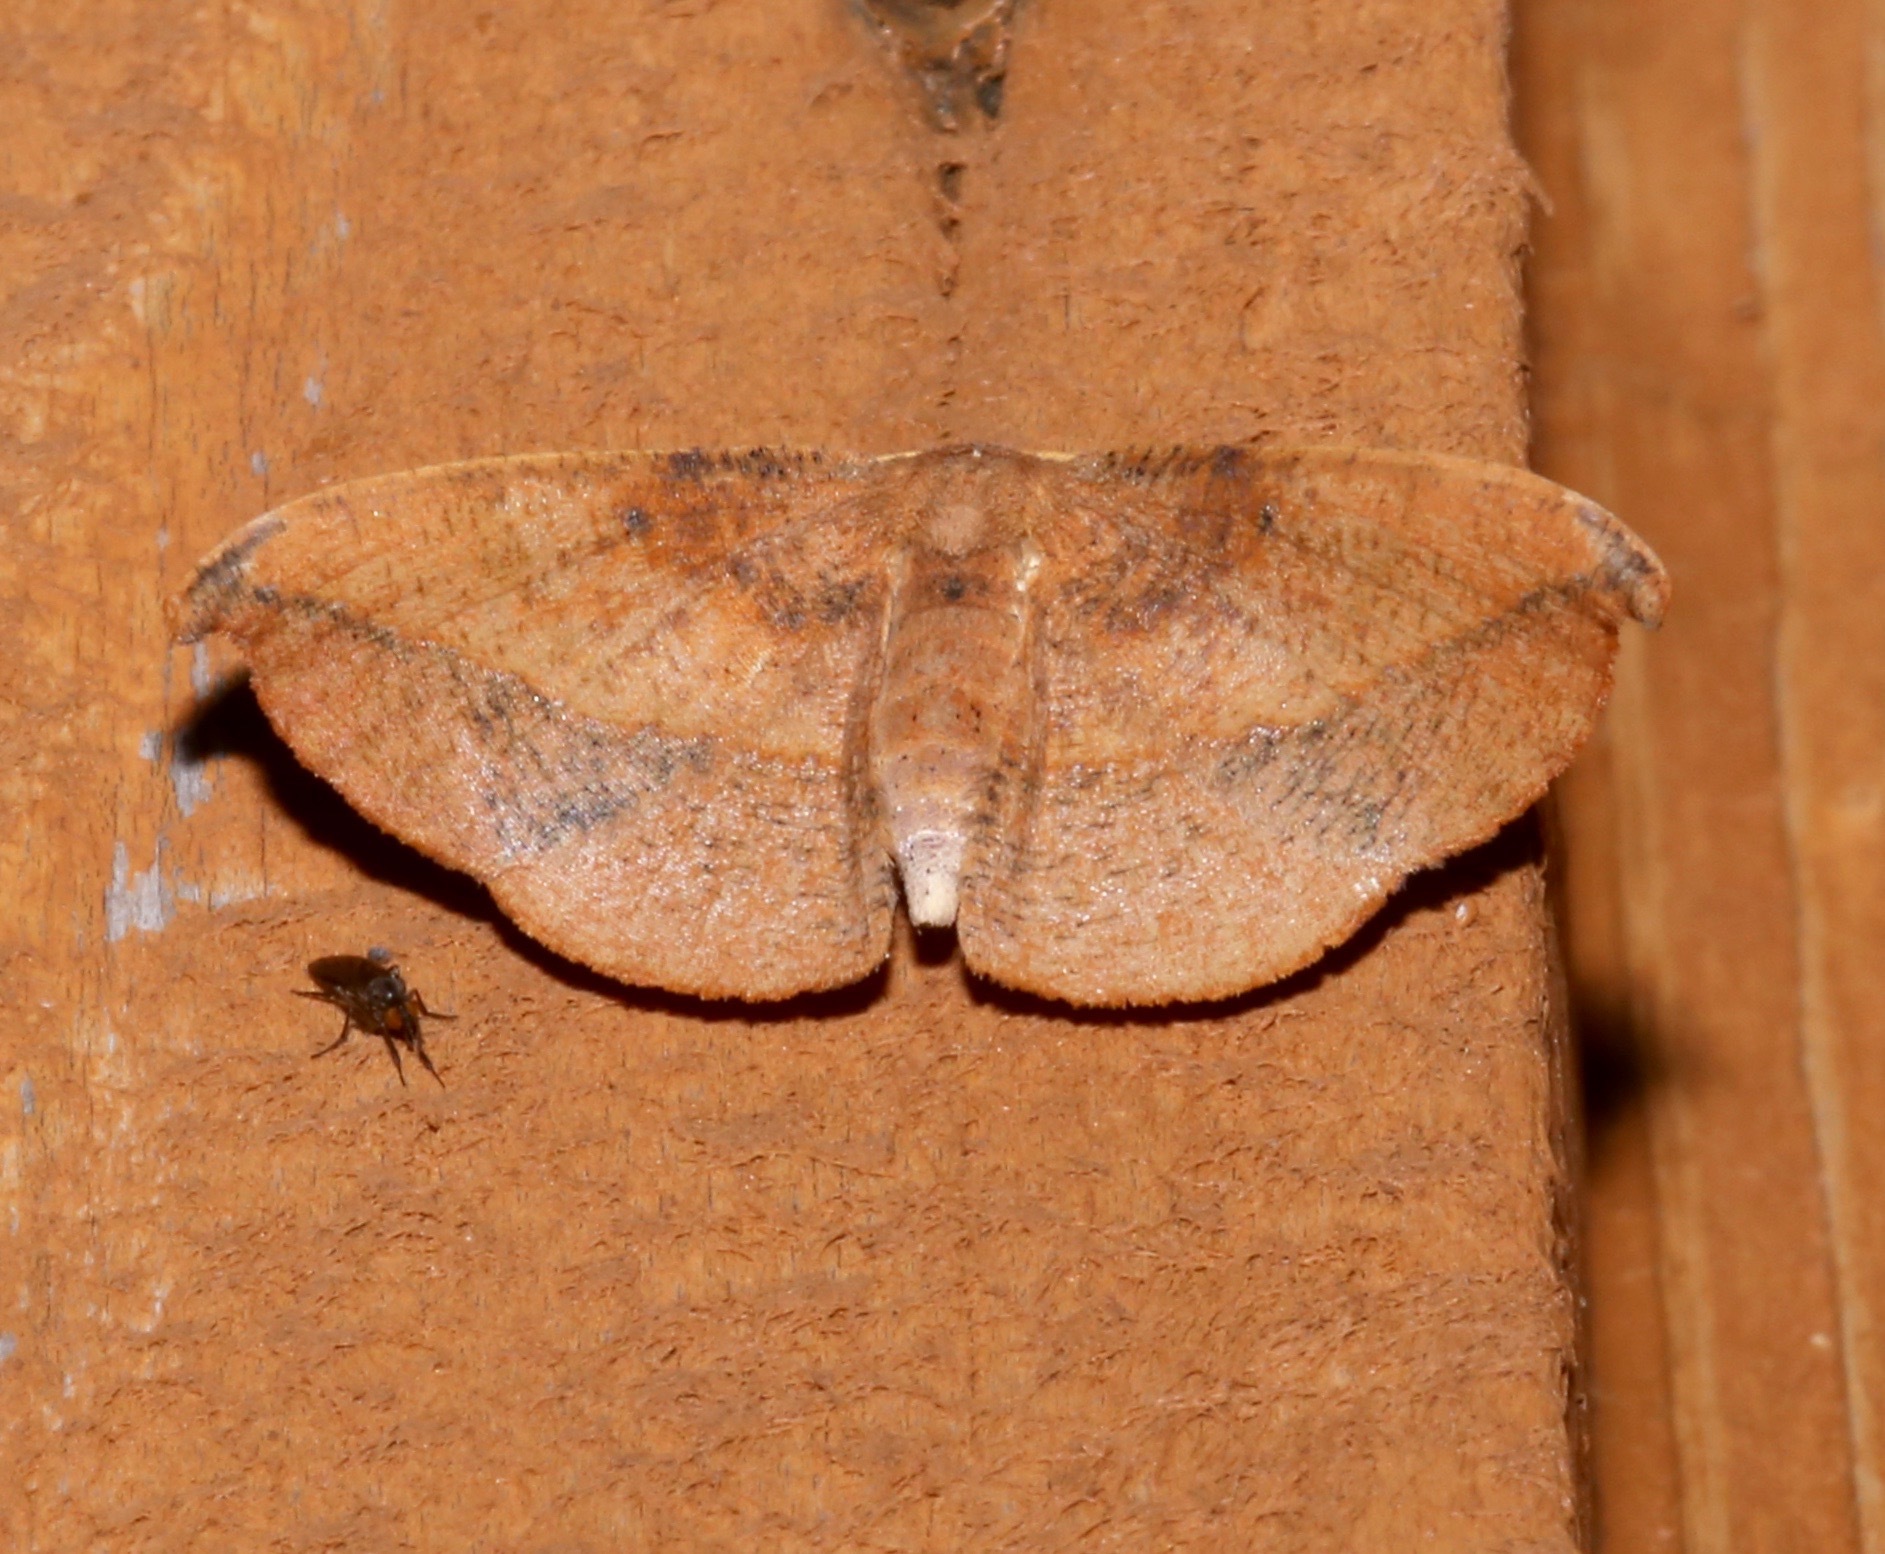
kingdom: Animalia
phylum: Arthropoda
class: Insecta
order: Lepidoptera
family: Geometridae
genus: Patalene
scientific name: Patalene olyzonaria
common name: Juniper geometer moth
